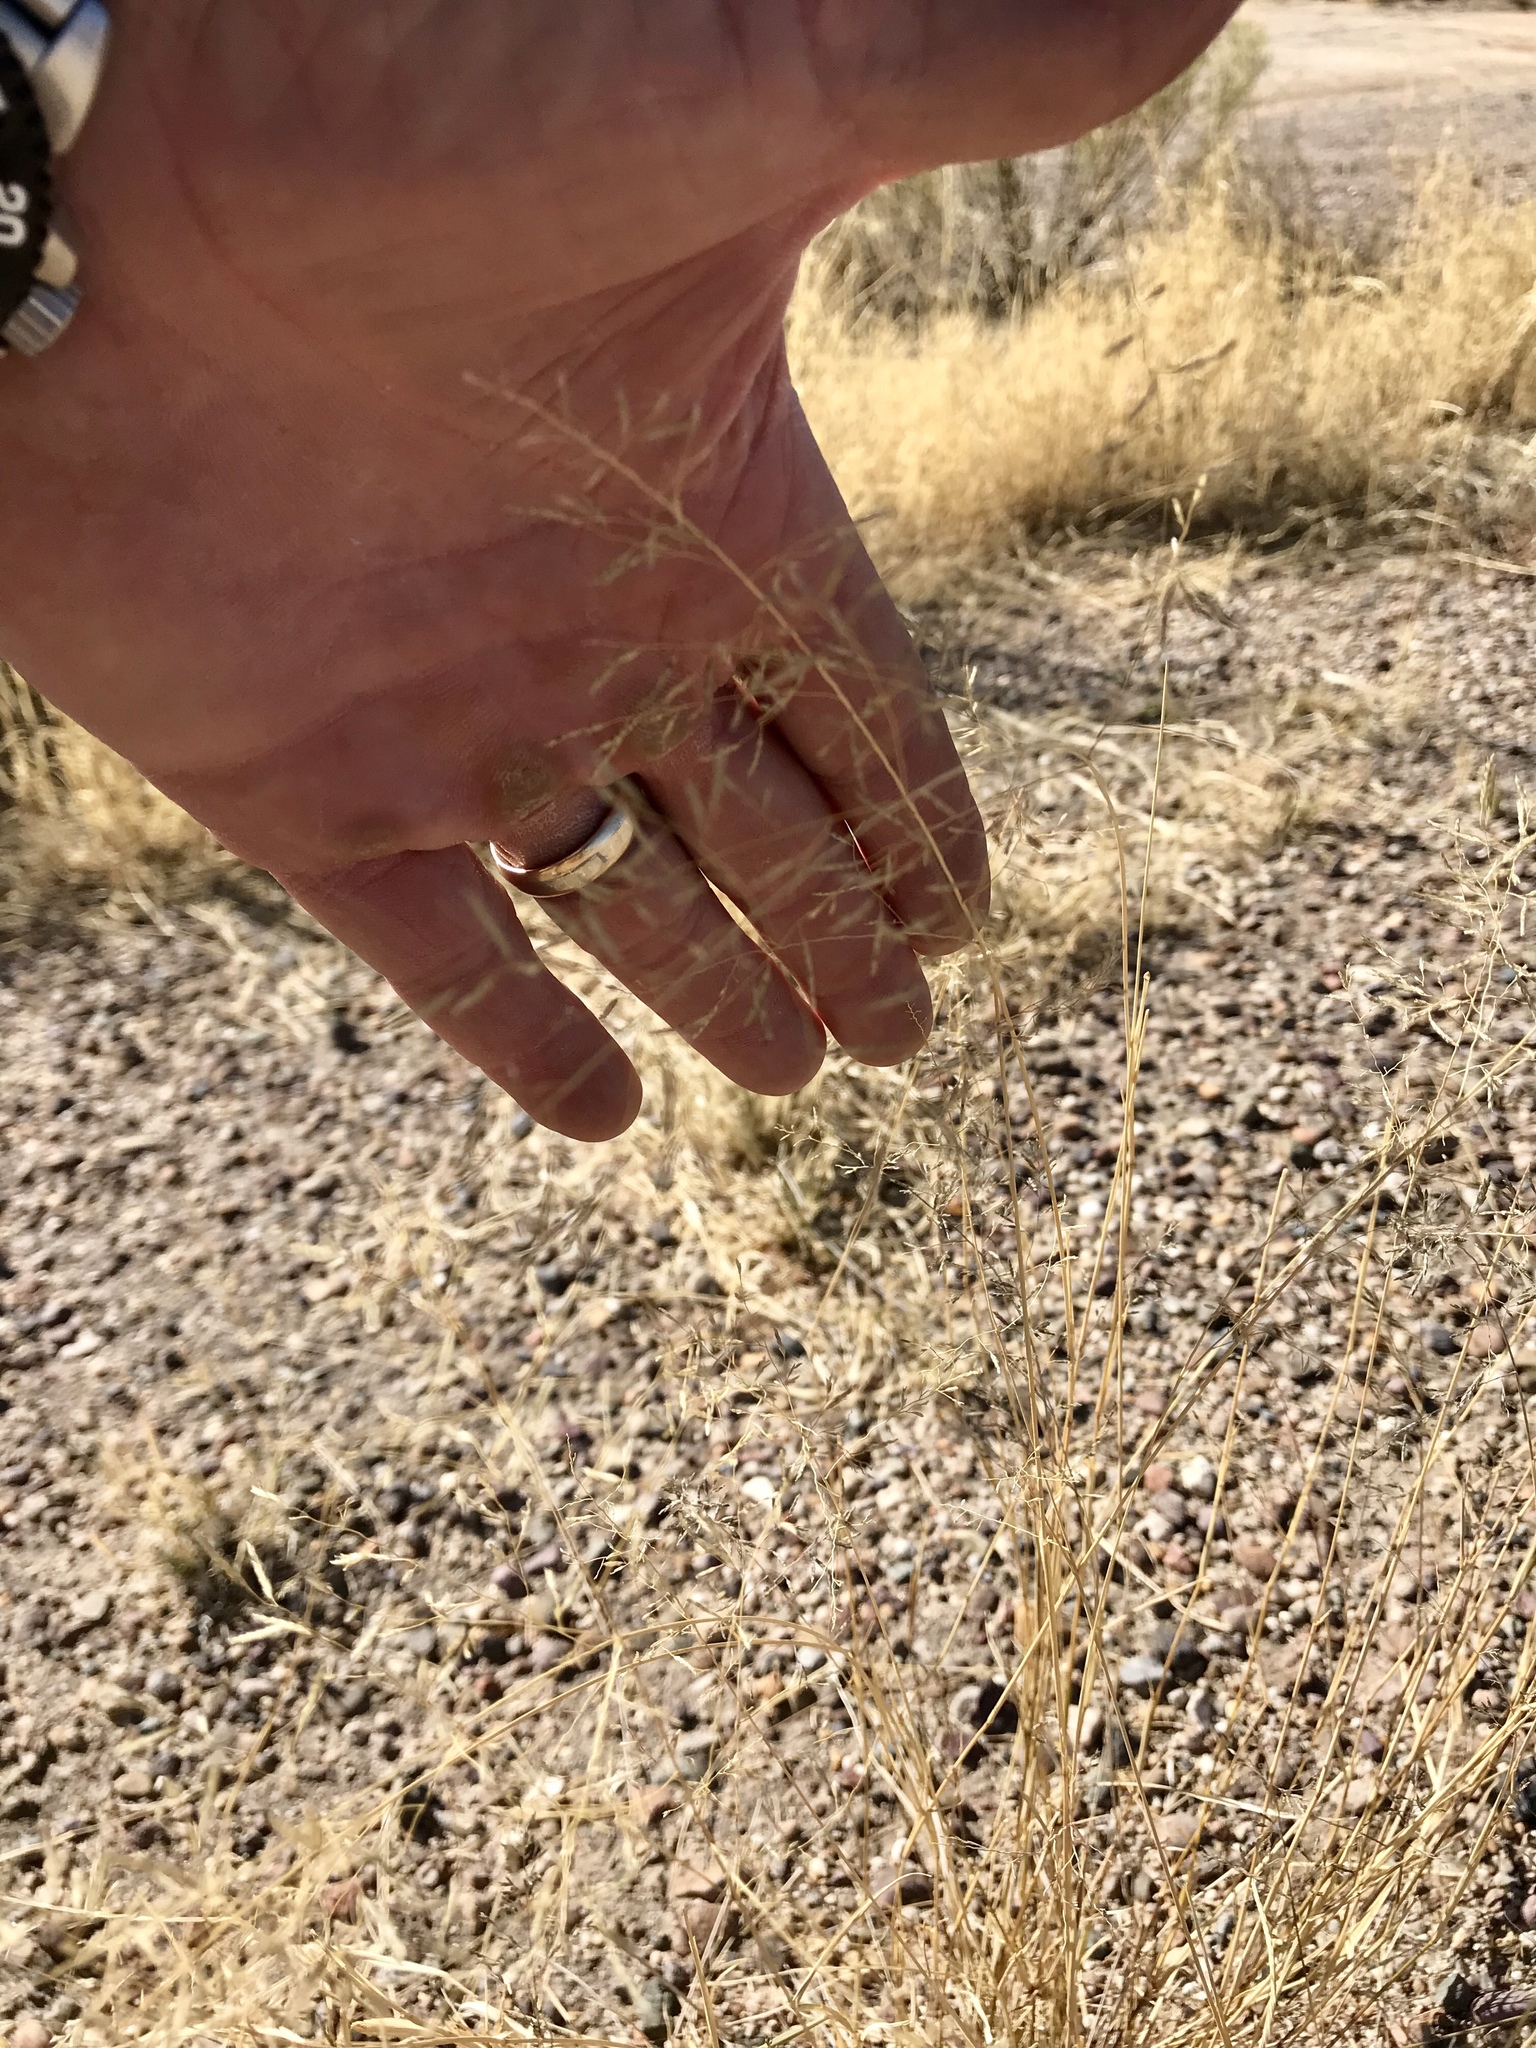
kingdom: Plantae
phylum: Tracheophyta
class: Liliopsida
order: Poales
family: Poaceae
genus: Eragrostis
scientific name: Eragrostis lehmanniana
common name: Lehmann lovegrass
